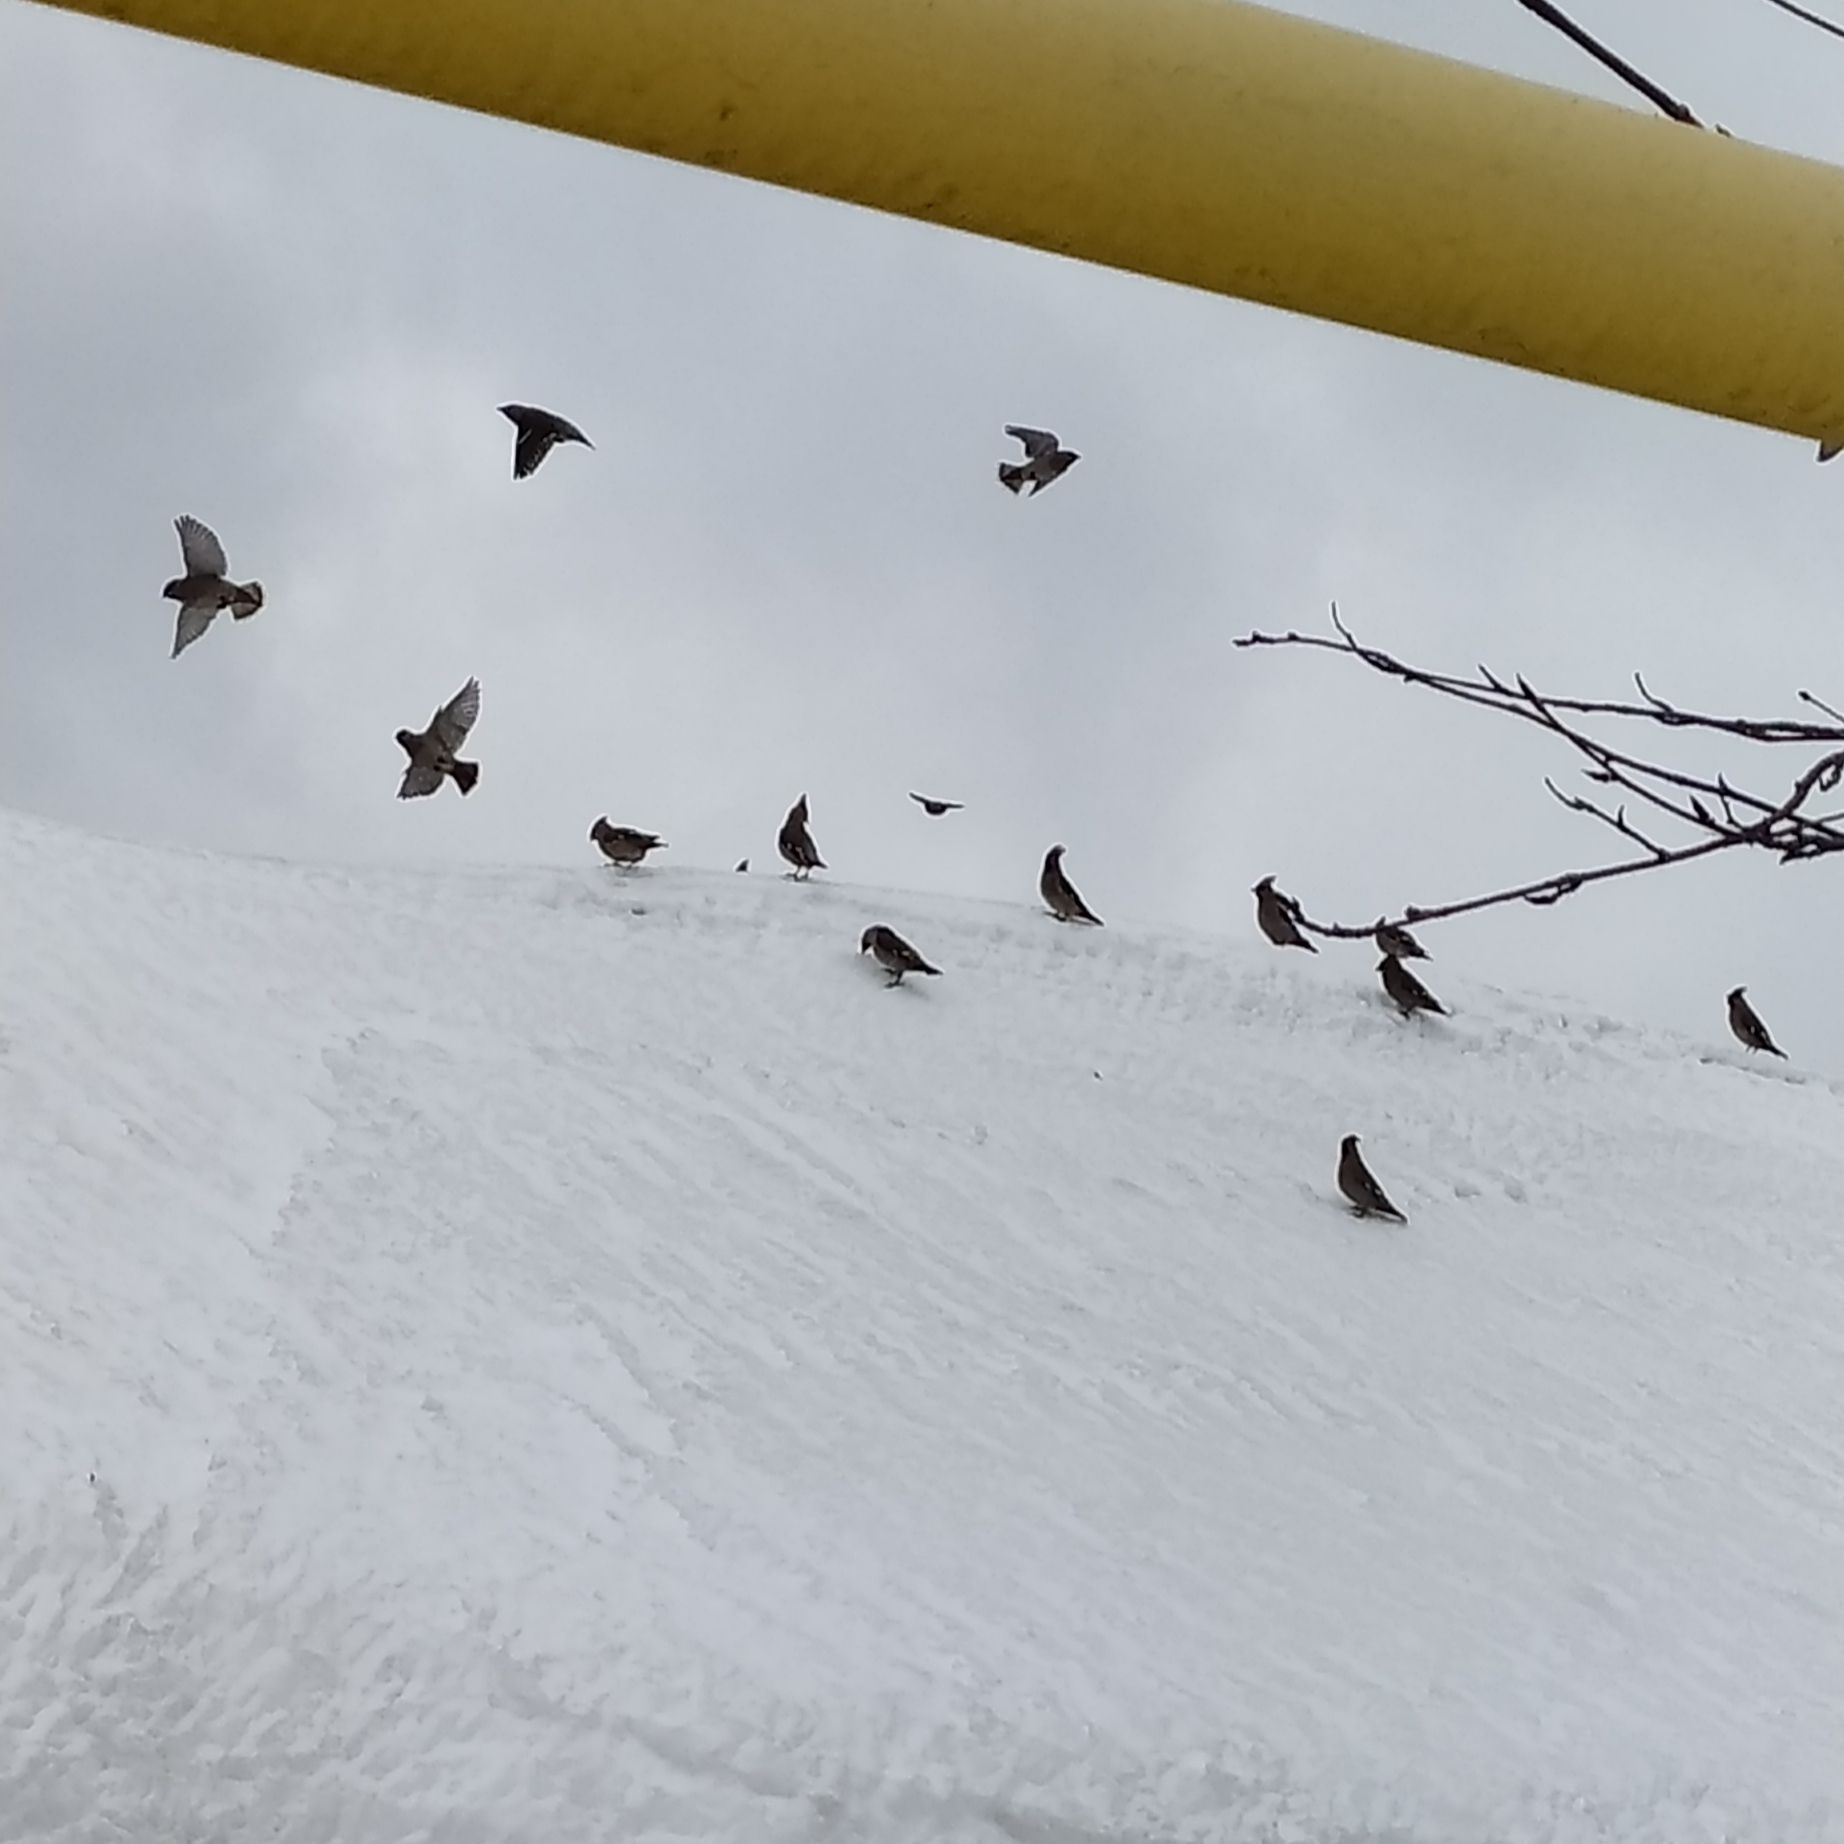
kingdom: Animalia
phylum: Chordata
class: Aves
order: Passeriformes
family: Bombycillidae
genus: Bombycilla
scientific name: Bombycilla garrulus
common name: Bohemian waxwing
